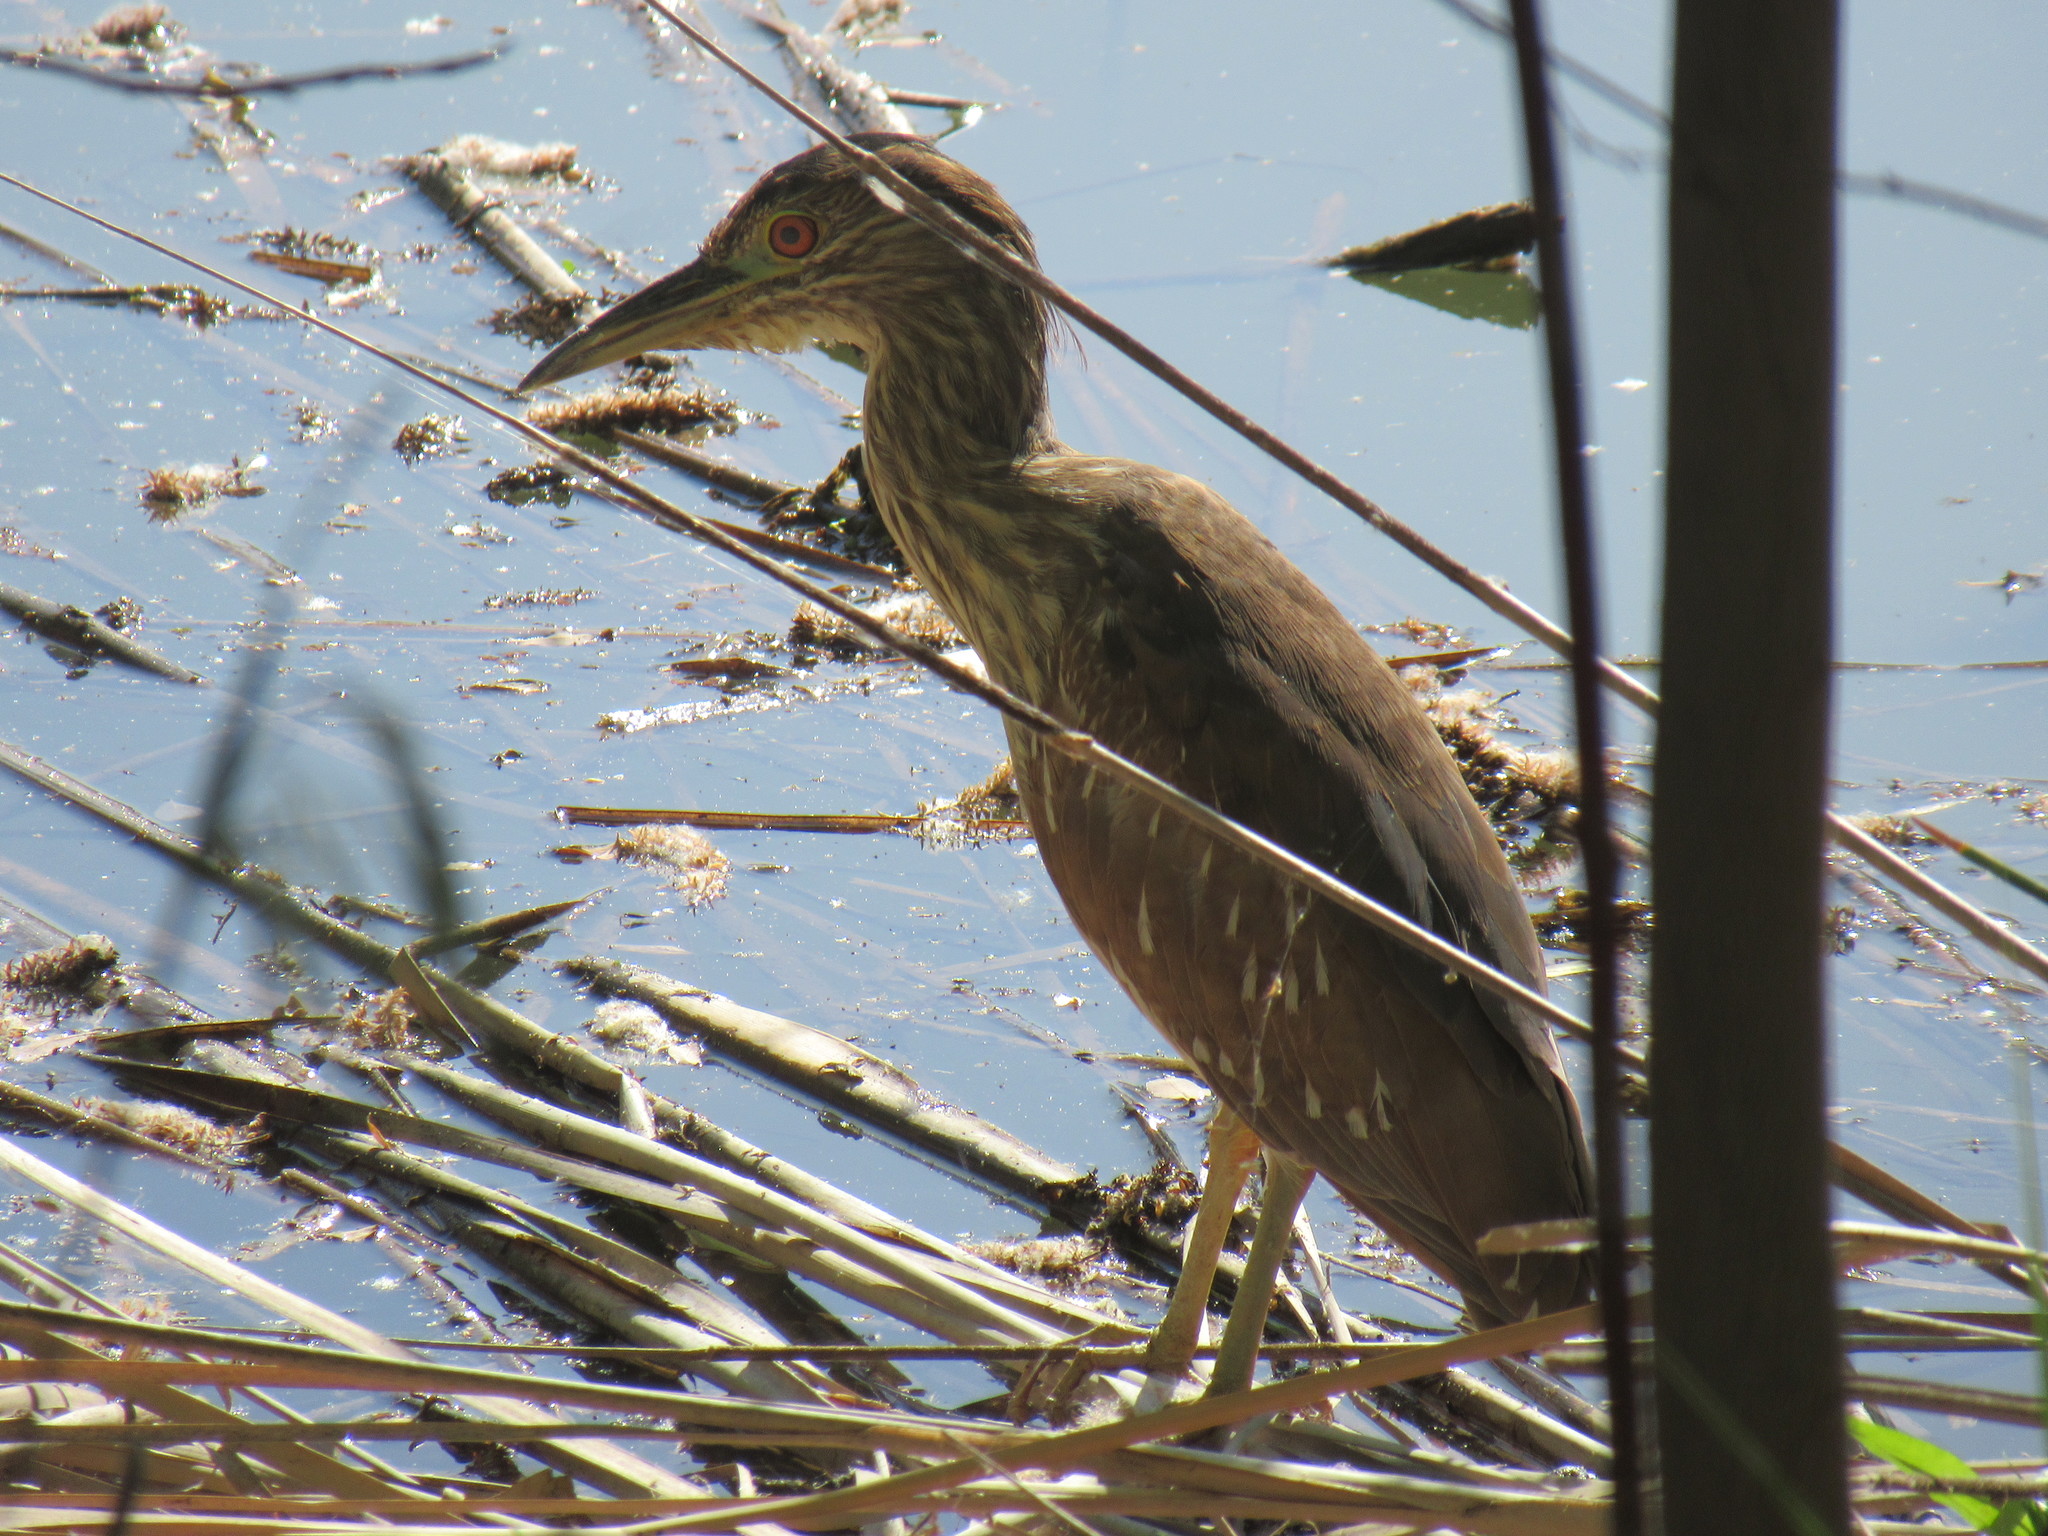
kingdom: Animalia
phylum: Chordata
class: Aves
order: Pelecaniformes
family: Ardeidae
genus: Nycticorax
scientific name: Nycticorax nycticorax
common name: Black-crowned night heron
